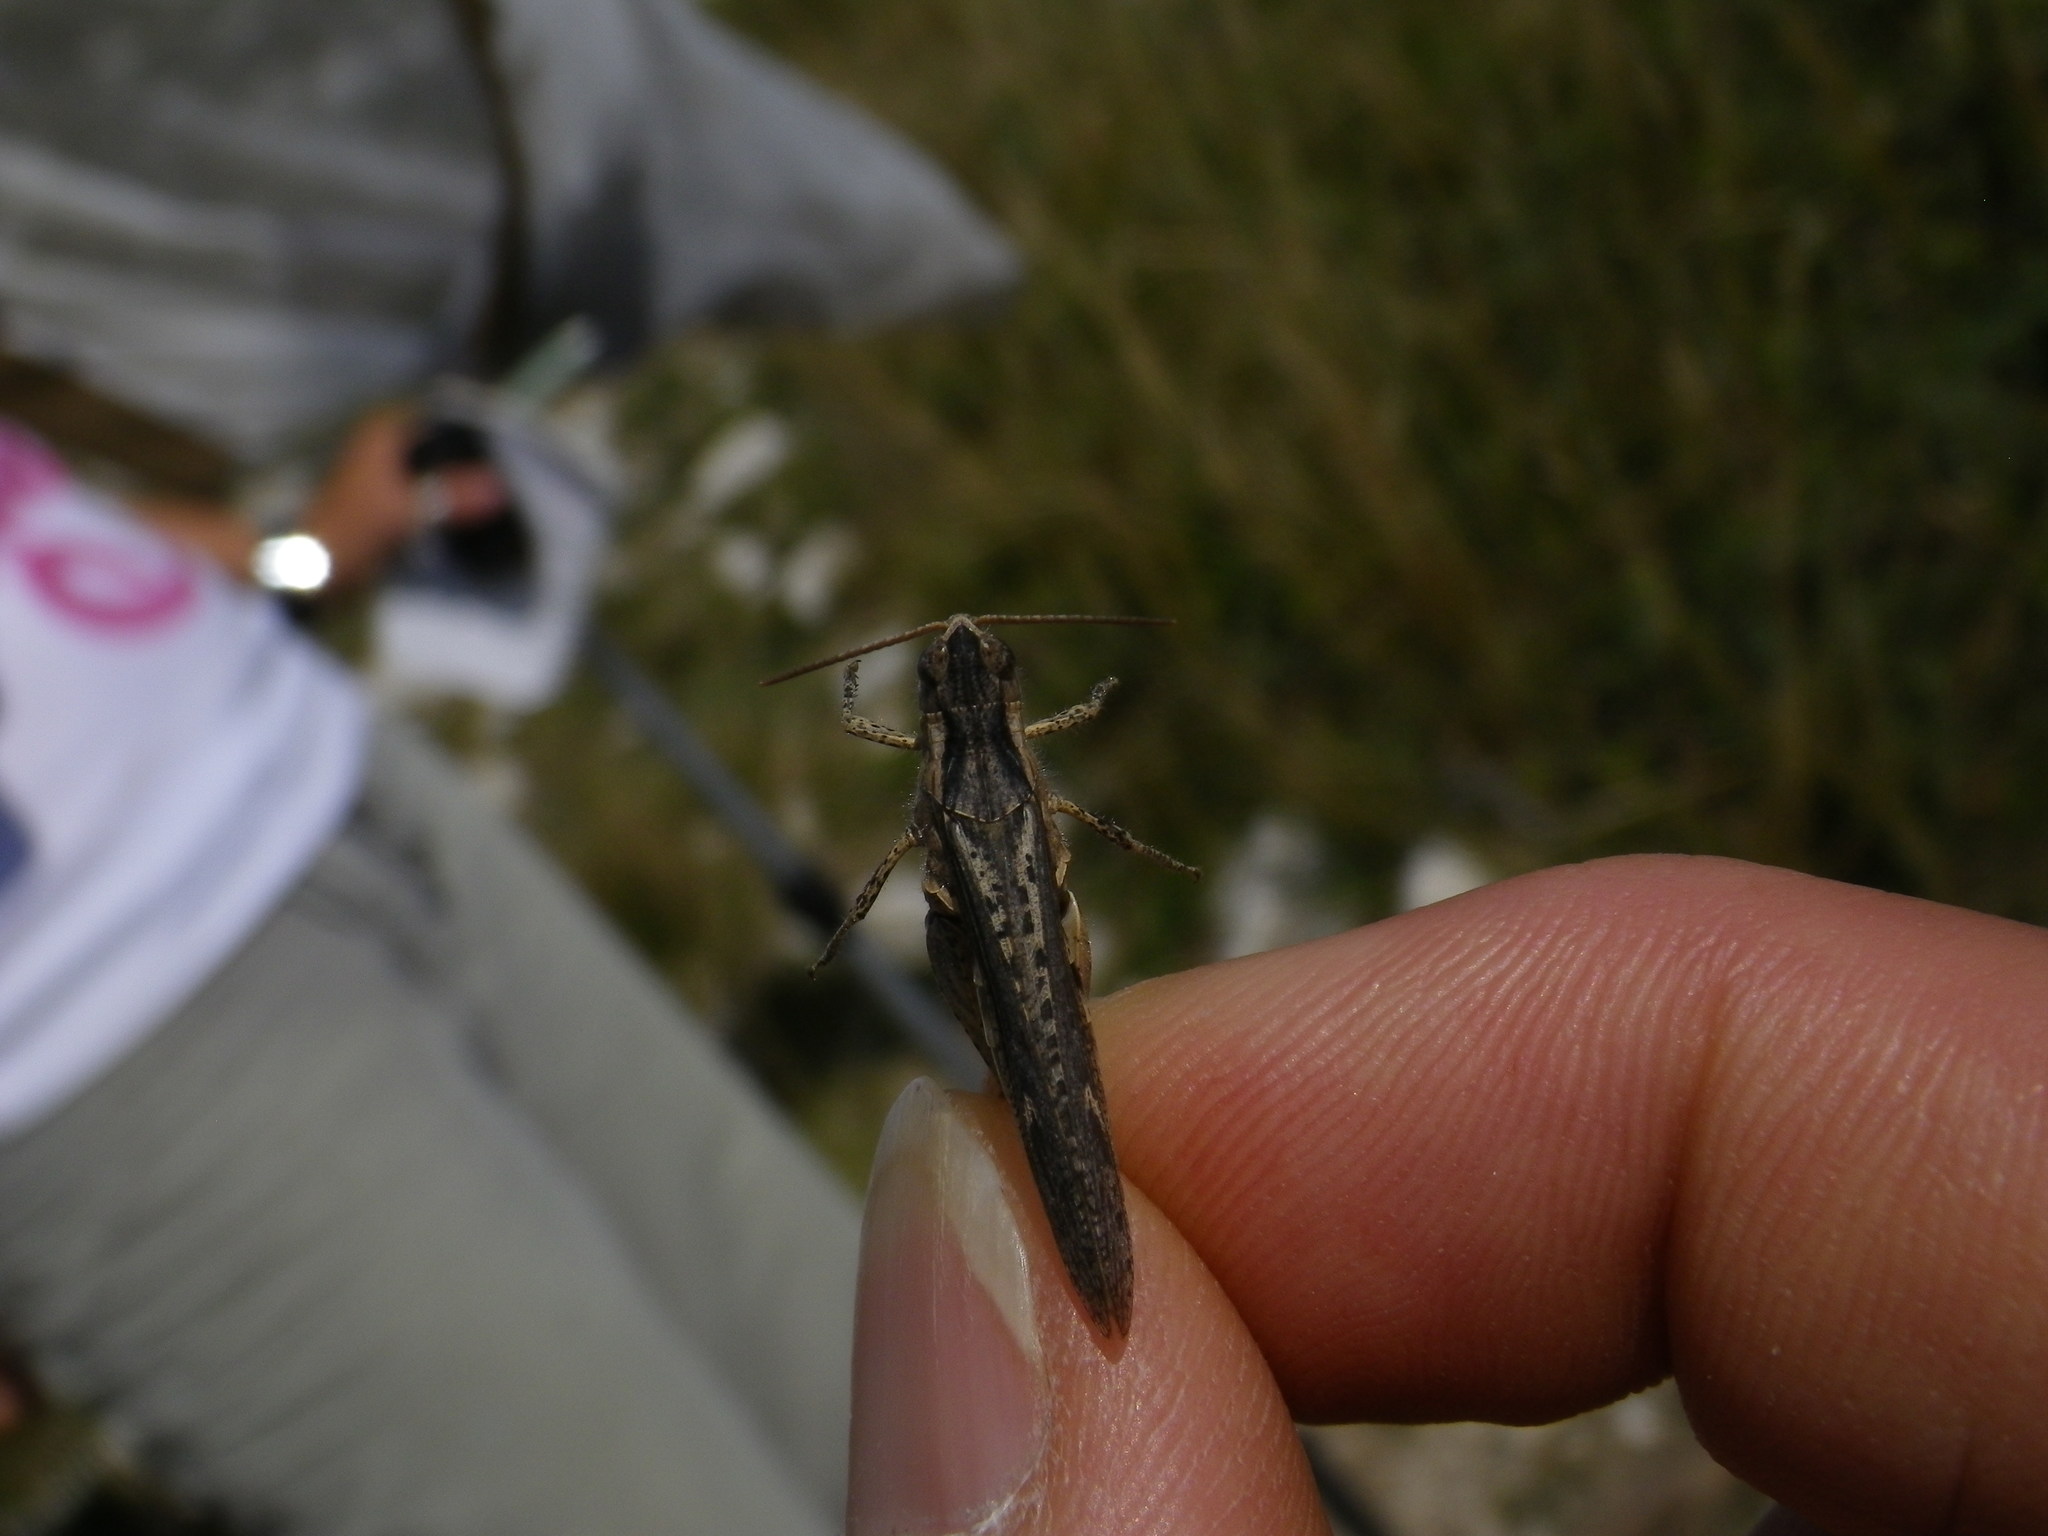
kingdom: Animalia
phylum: Arthropoda
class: Insecta
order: Orthoptera
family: Acrididae
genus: Chorthippus
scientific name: Chorthippus brunneus
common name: Field grasshopper
